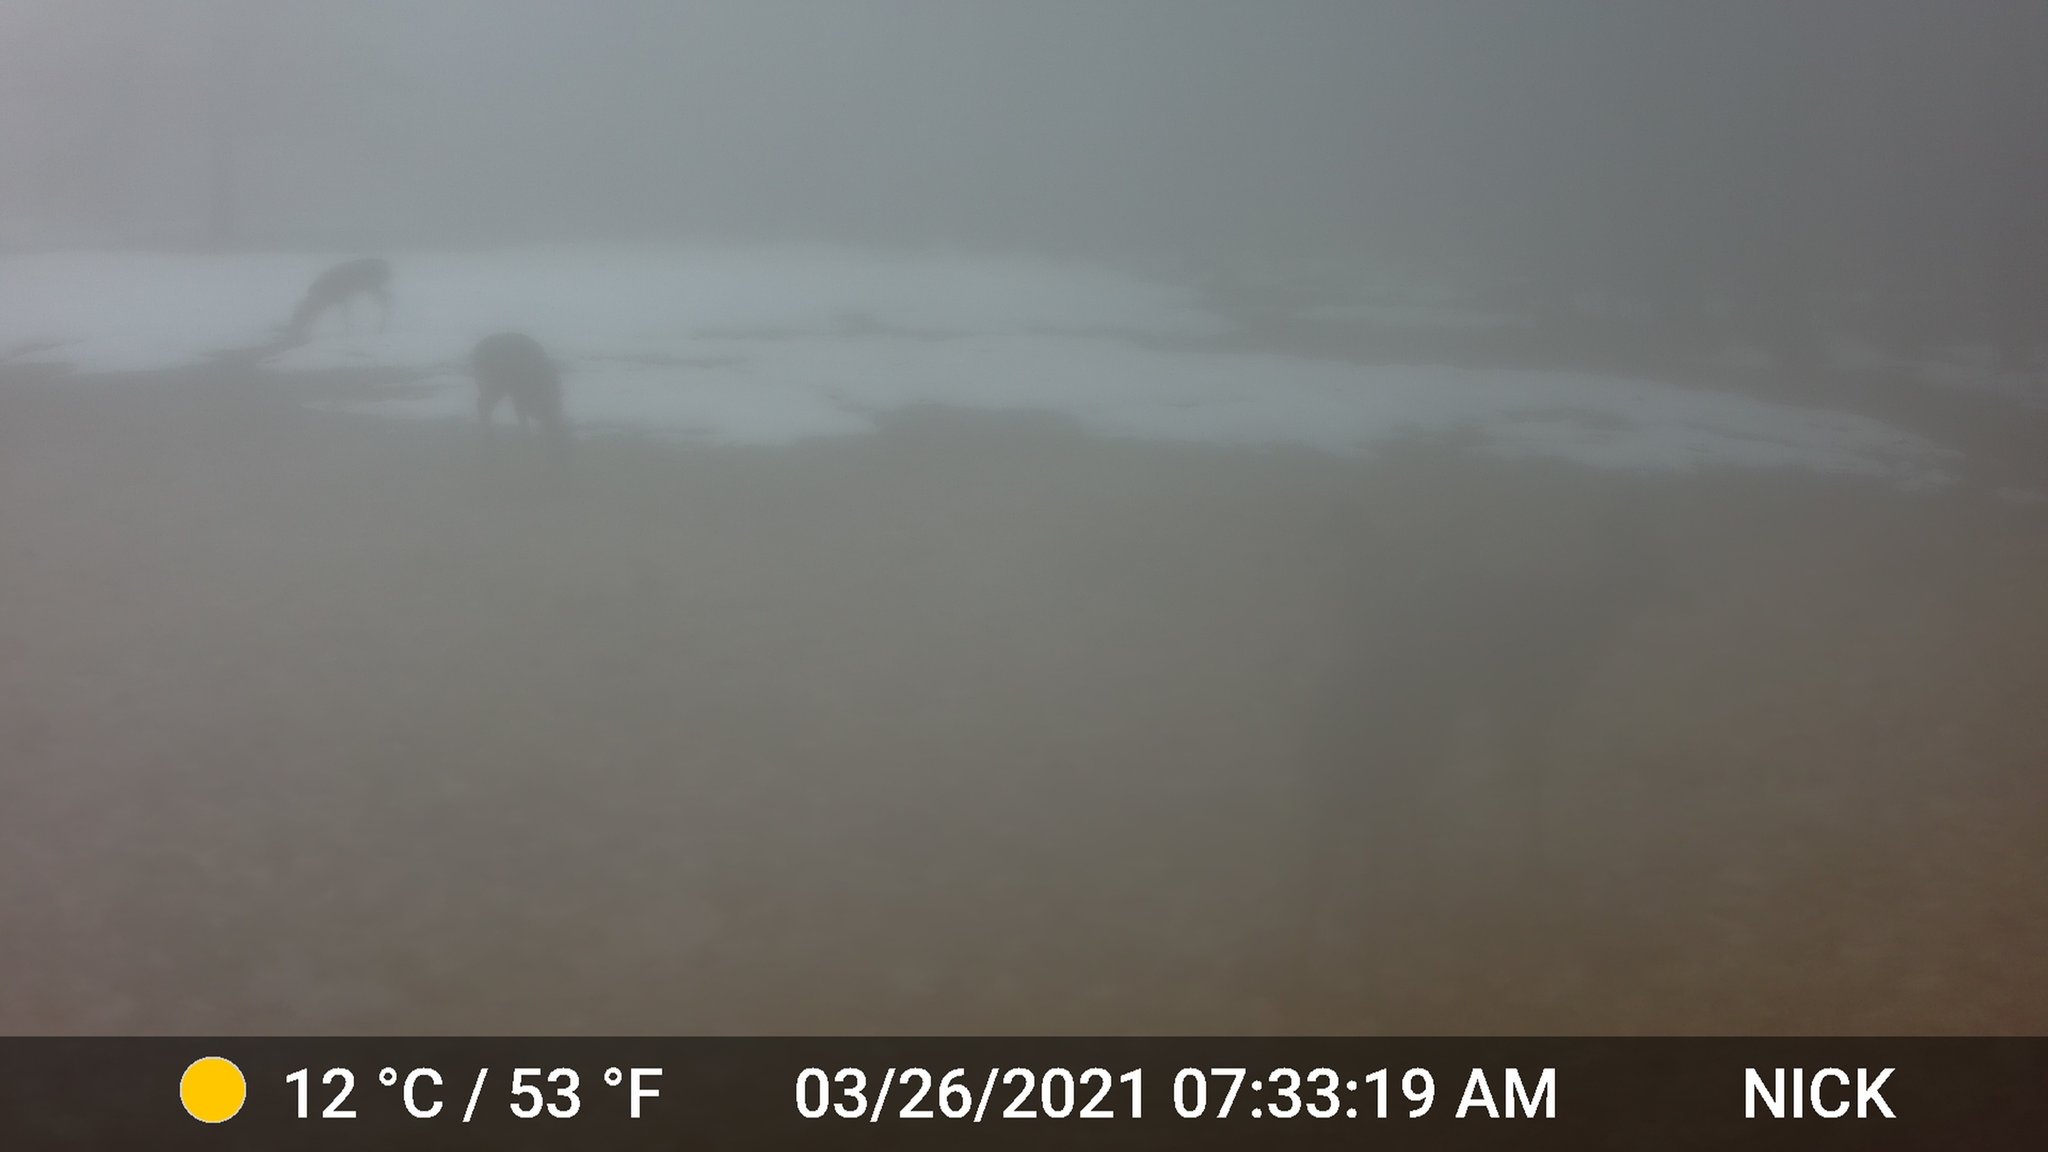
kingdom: Animalia
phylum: Chordata
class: Mammalia
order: Artiodactyla
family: Cervidae
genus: Odocoileus
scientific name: Odocoileus virginianus
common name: White-tailed deer
